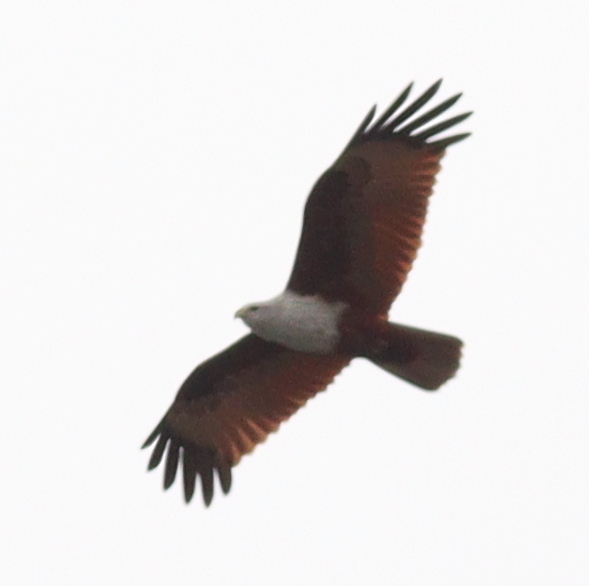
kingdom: Animalia
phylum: Chordata
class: Aves
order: Accipitriformes
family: Accipitridae
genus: Haliastur
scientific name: Haliastur indus
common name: Brahminy kite
